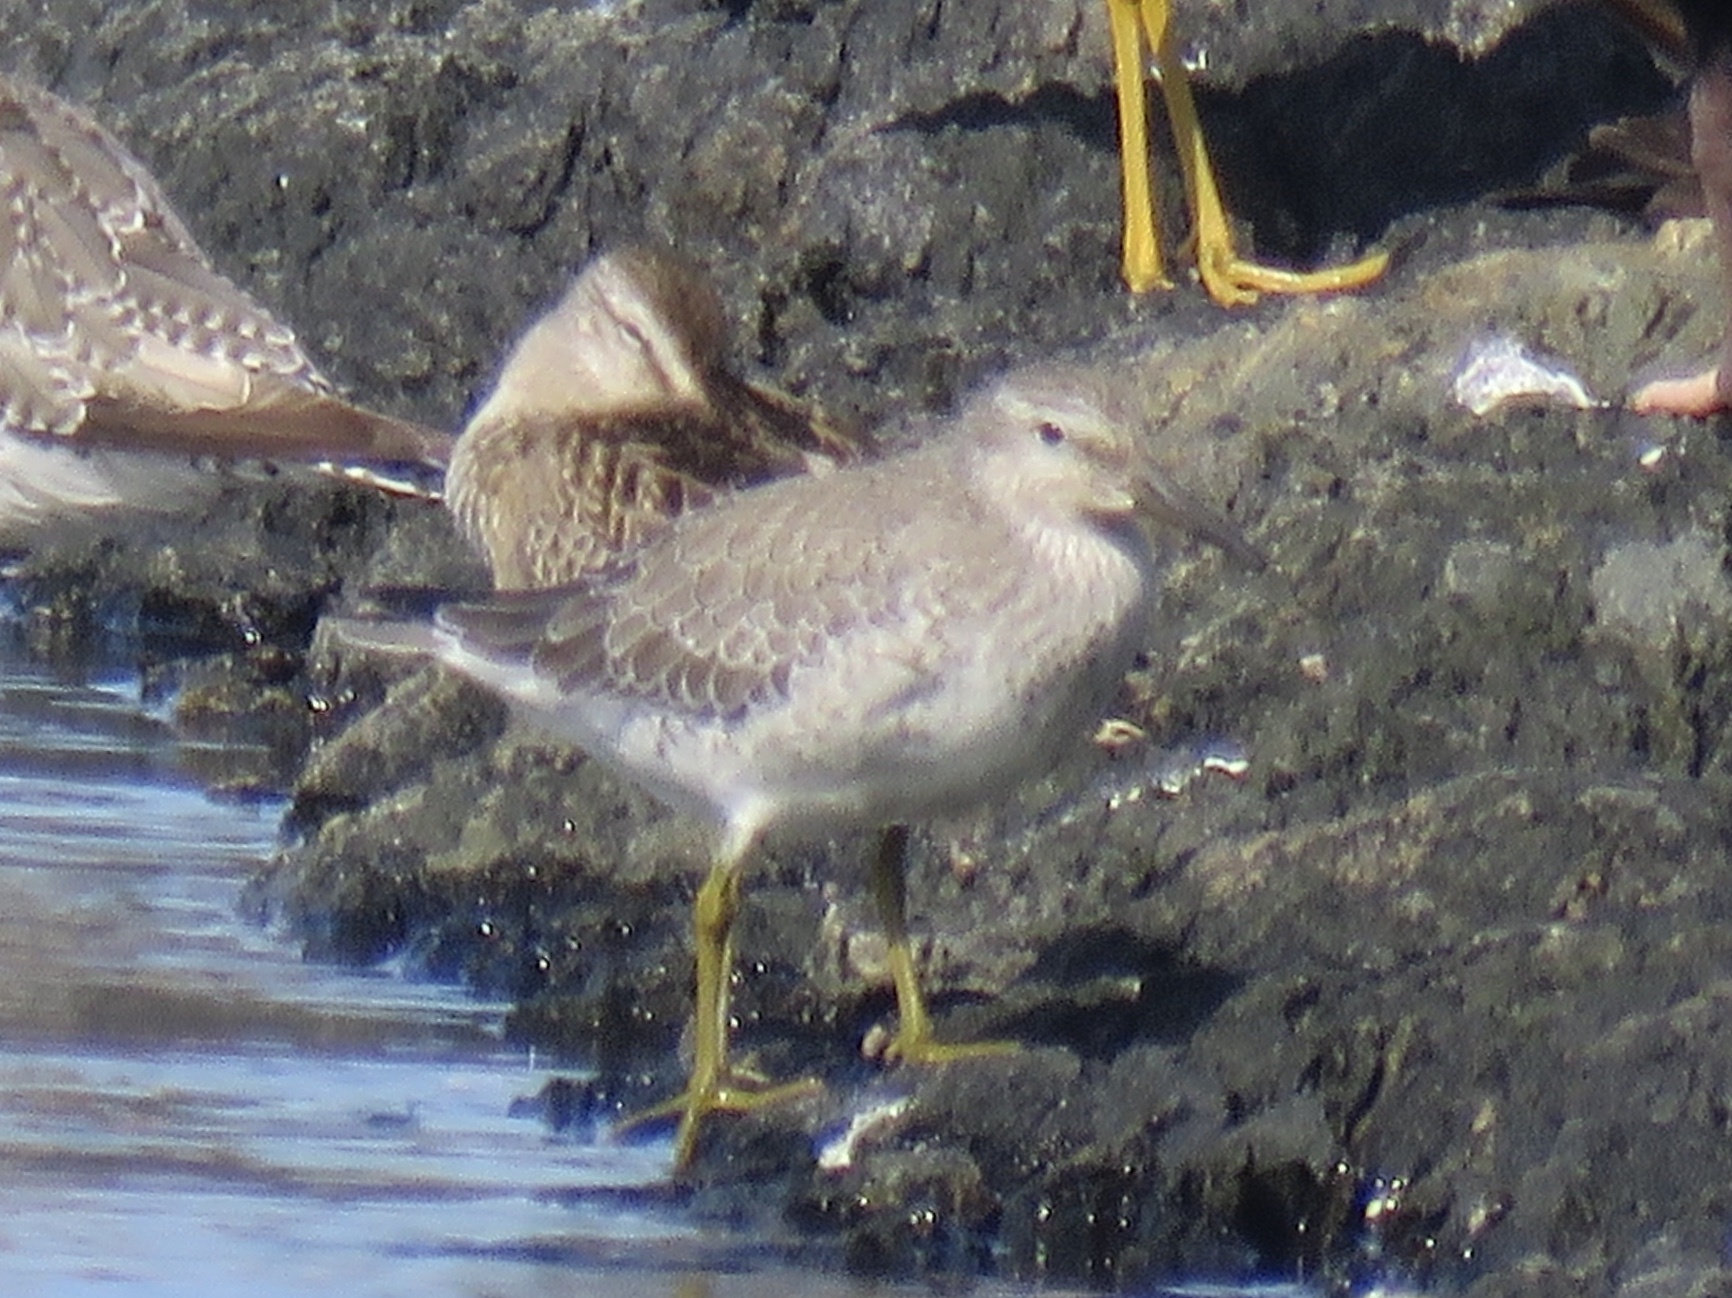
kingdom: Animalia
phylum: Chordata
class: Aves
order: Charadriiformes
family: Scolopacidae
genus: Calidris
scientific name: Calidris canutus
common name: Red knot
